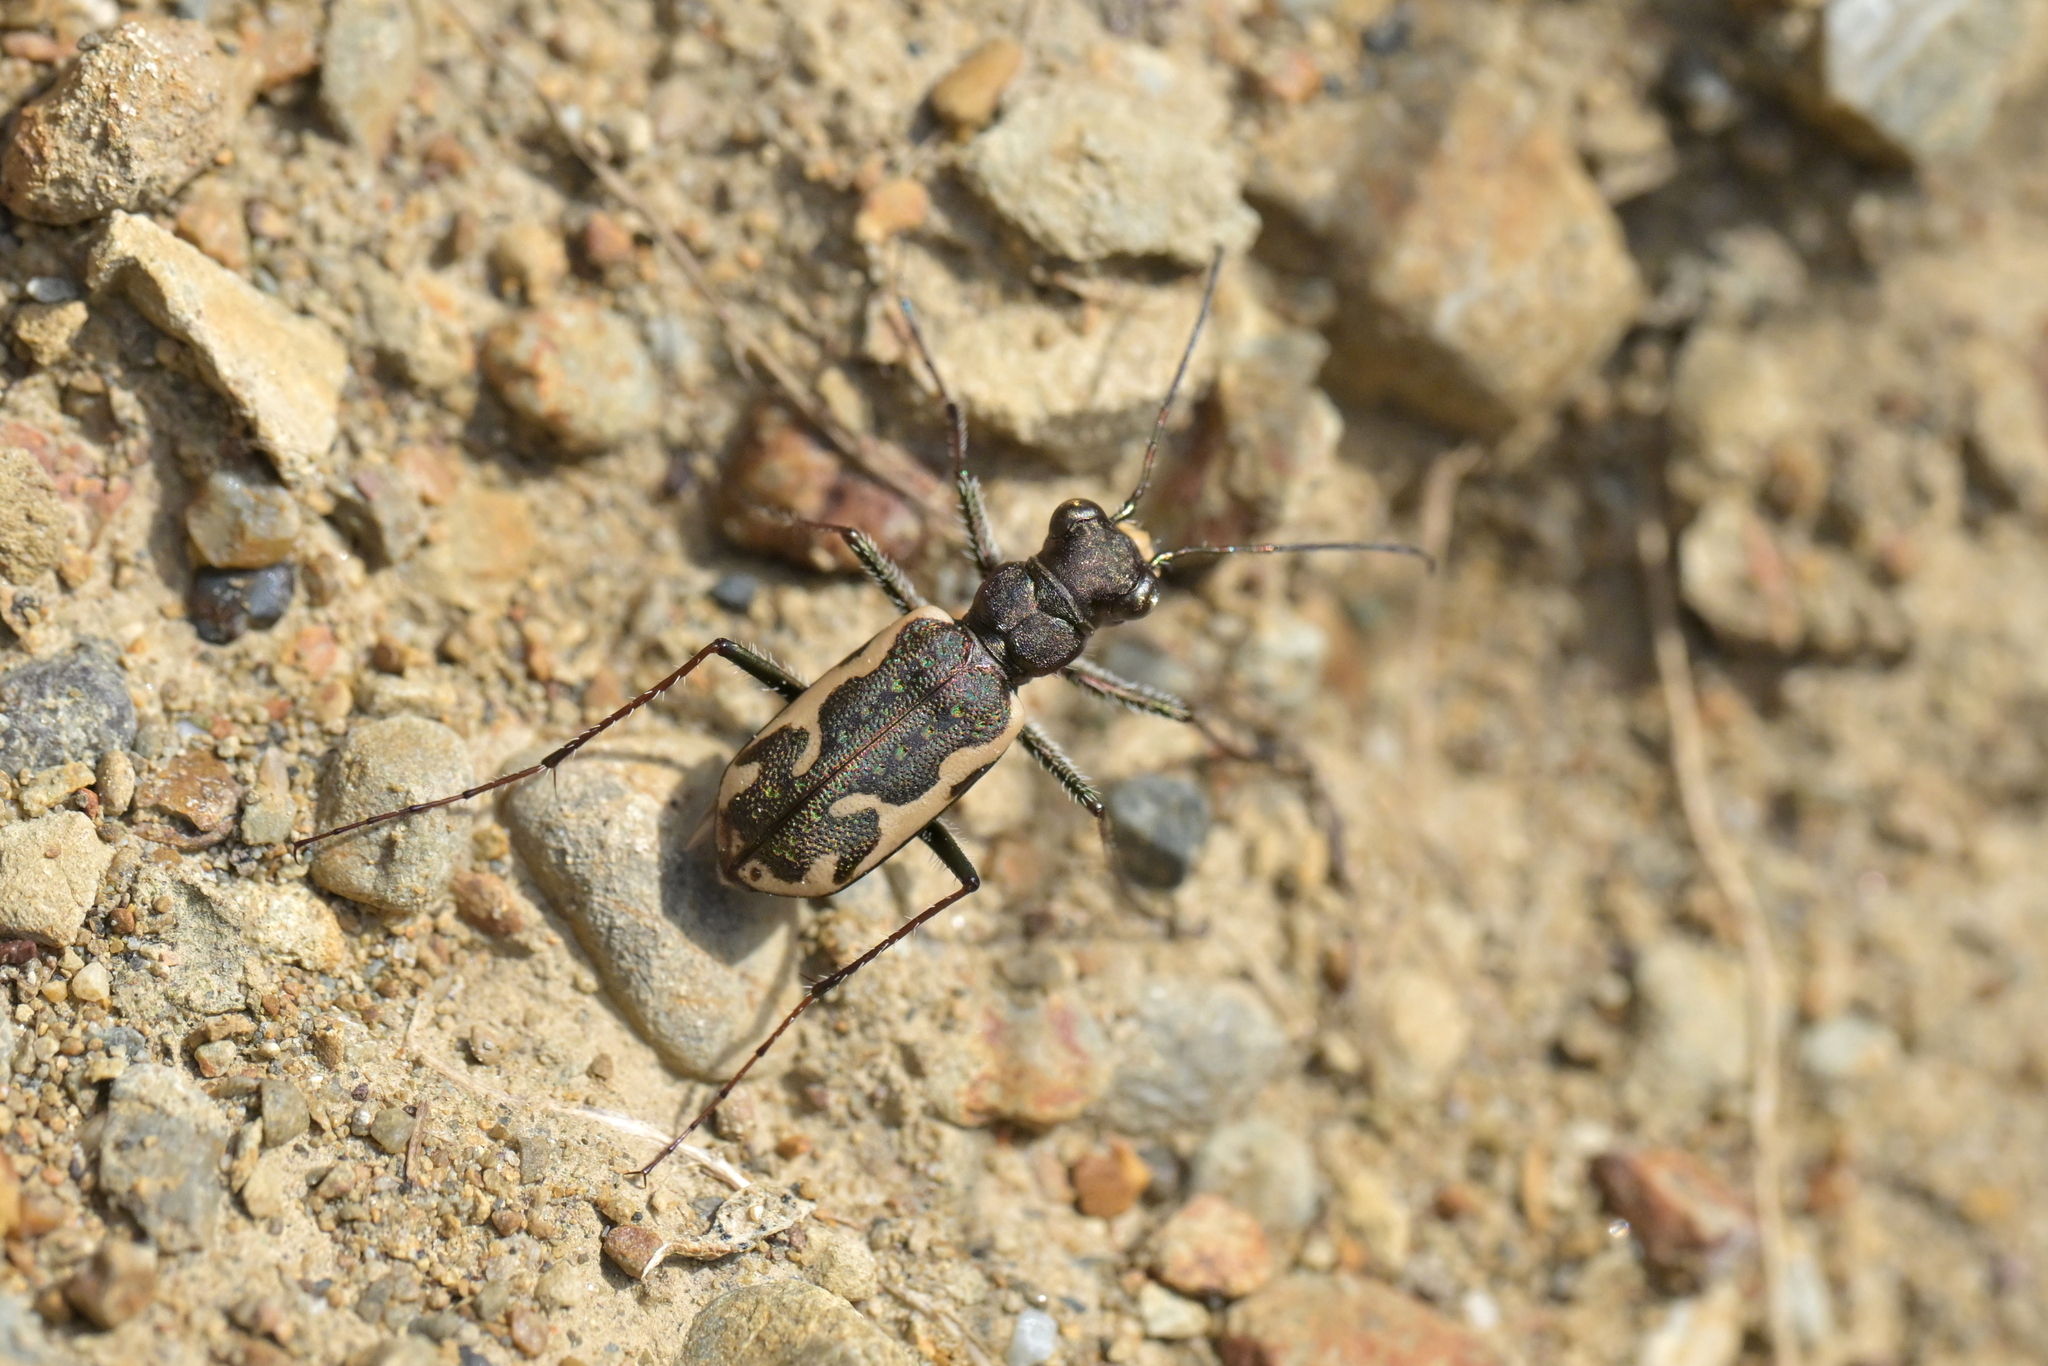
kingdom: Animalia
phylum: Arthropoda
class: Insecta
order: Coleoptera
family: Carabidae
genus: Neocicindela
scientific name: Neocicindela tuberculata
